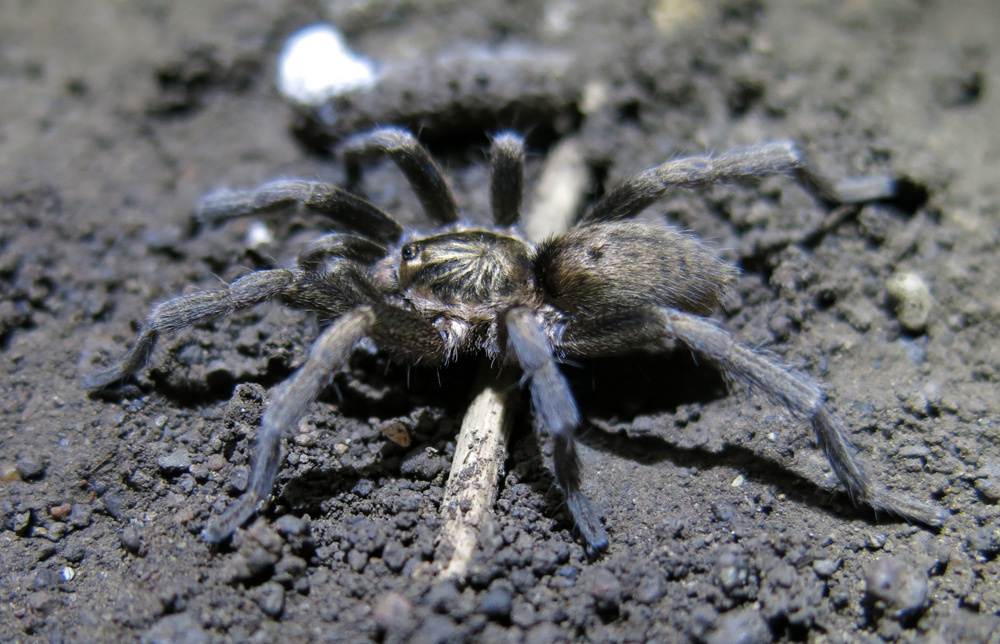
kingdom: Animalia
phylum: Arthropoda
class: Arachnida
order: Araneae
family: Theraphosidae
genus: Harpactirella
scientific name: Harpactirella overdijki
